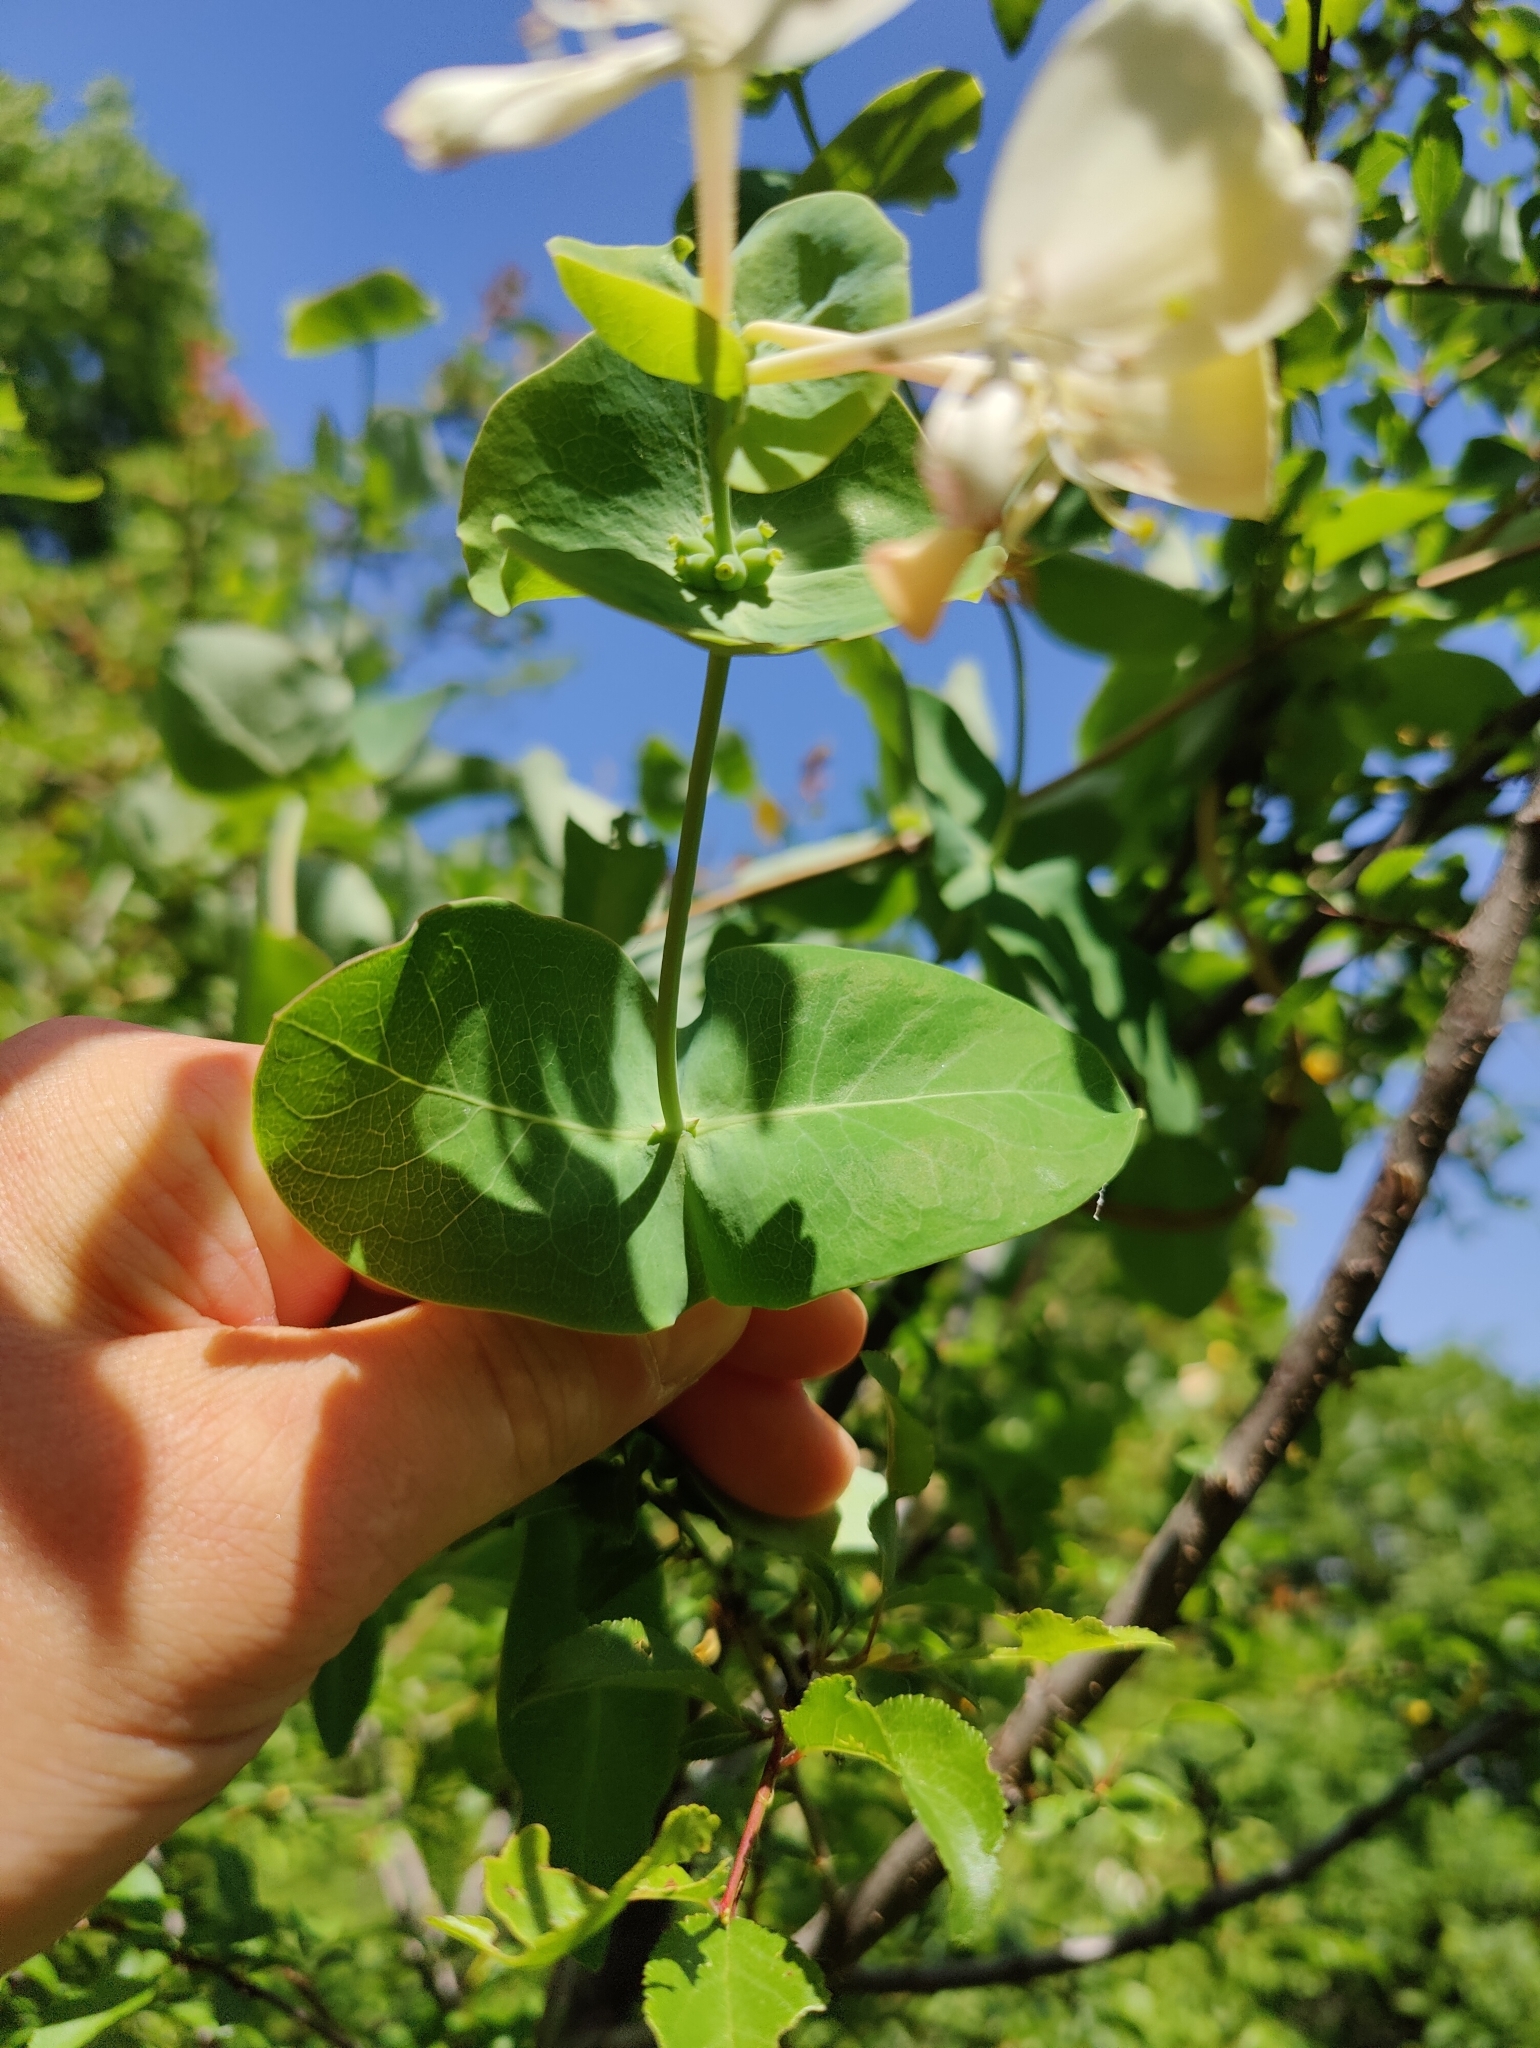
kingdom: Plantae
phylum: Tracheophyta
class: Magnoliopsida
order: Dipsacales
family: Caprifoliaceae
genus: Lonicera
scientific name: Lonicera caprifolium
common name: Perfoliate honeysuckle
